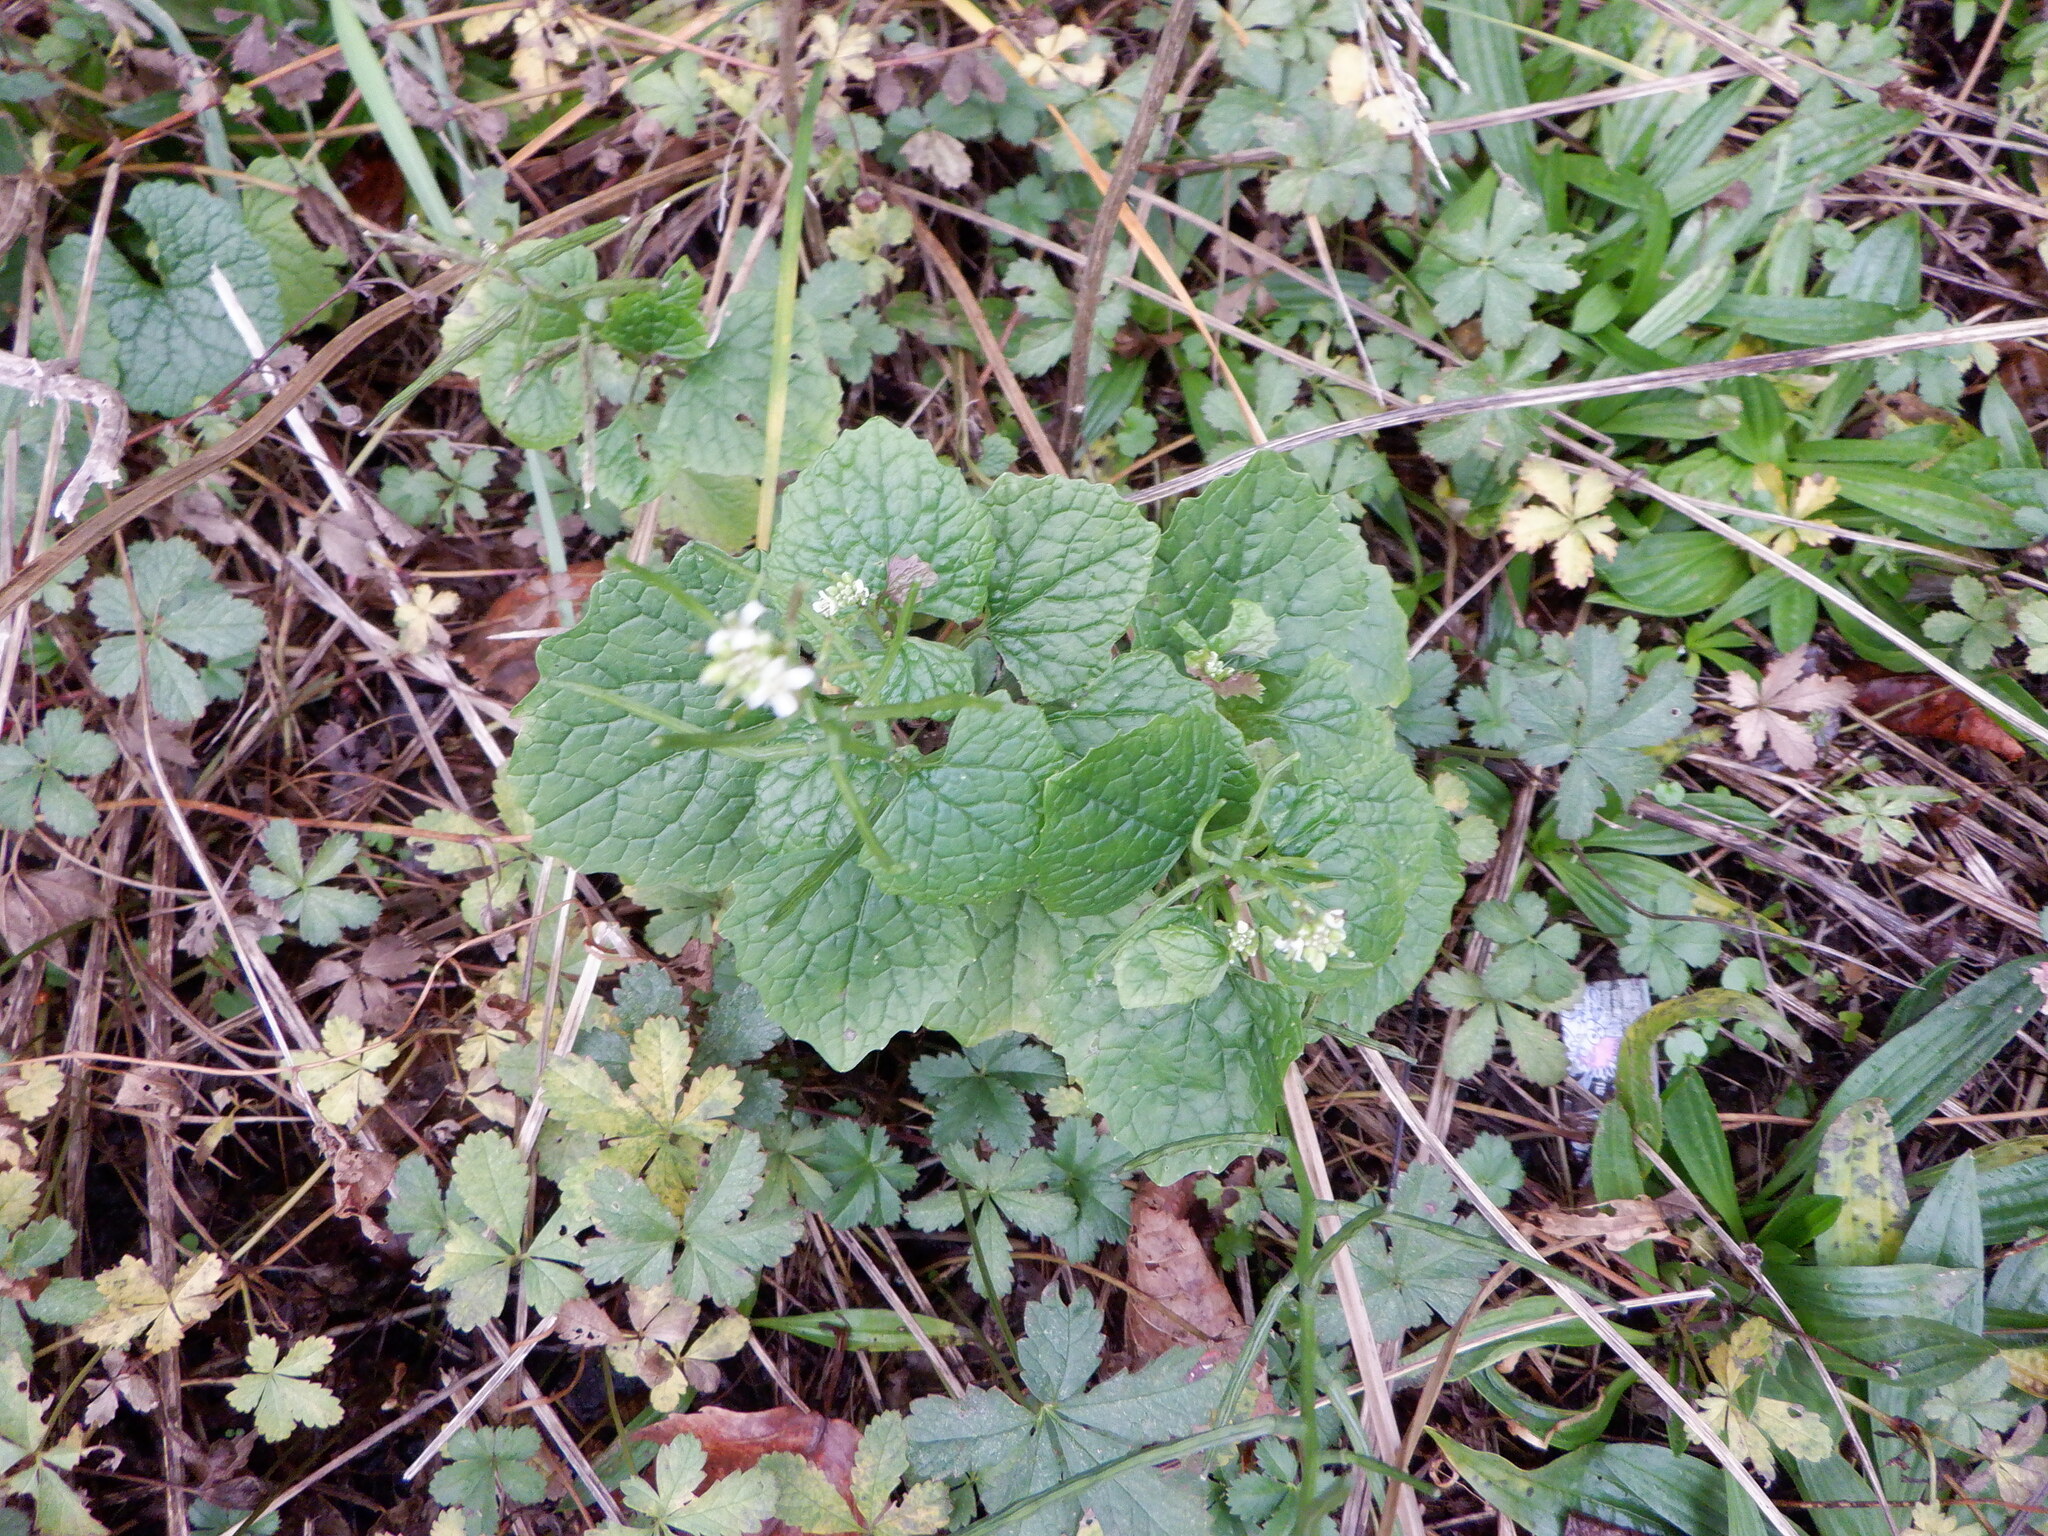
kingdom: Plantae
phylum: Tracheophyta
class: Magnoliopsida
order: Brassicales
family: Brassicaceae
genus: Alliaria
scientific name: Alliaria petiolata
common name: Garlic mustard
